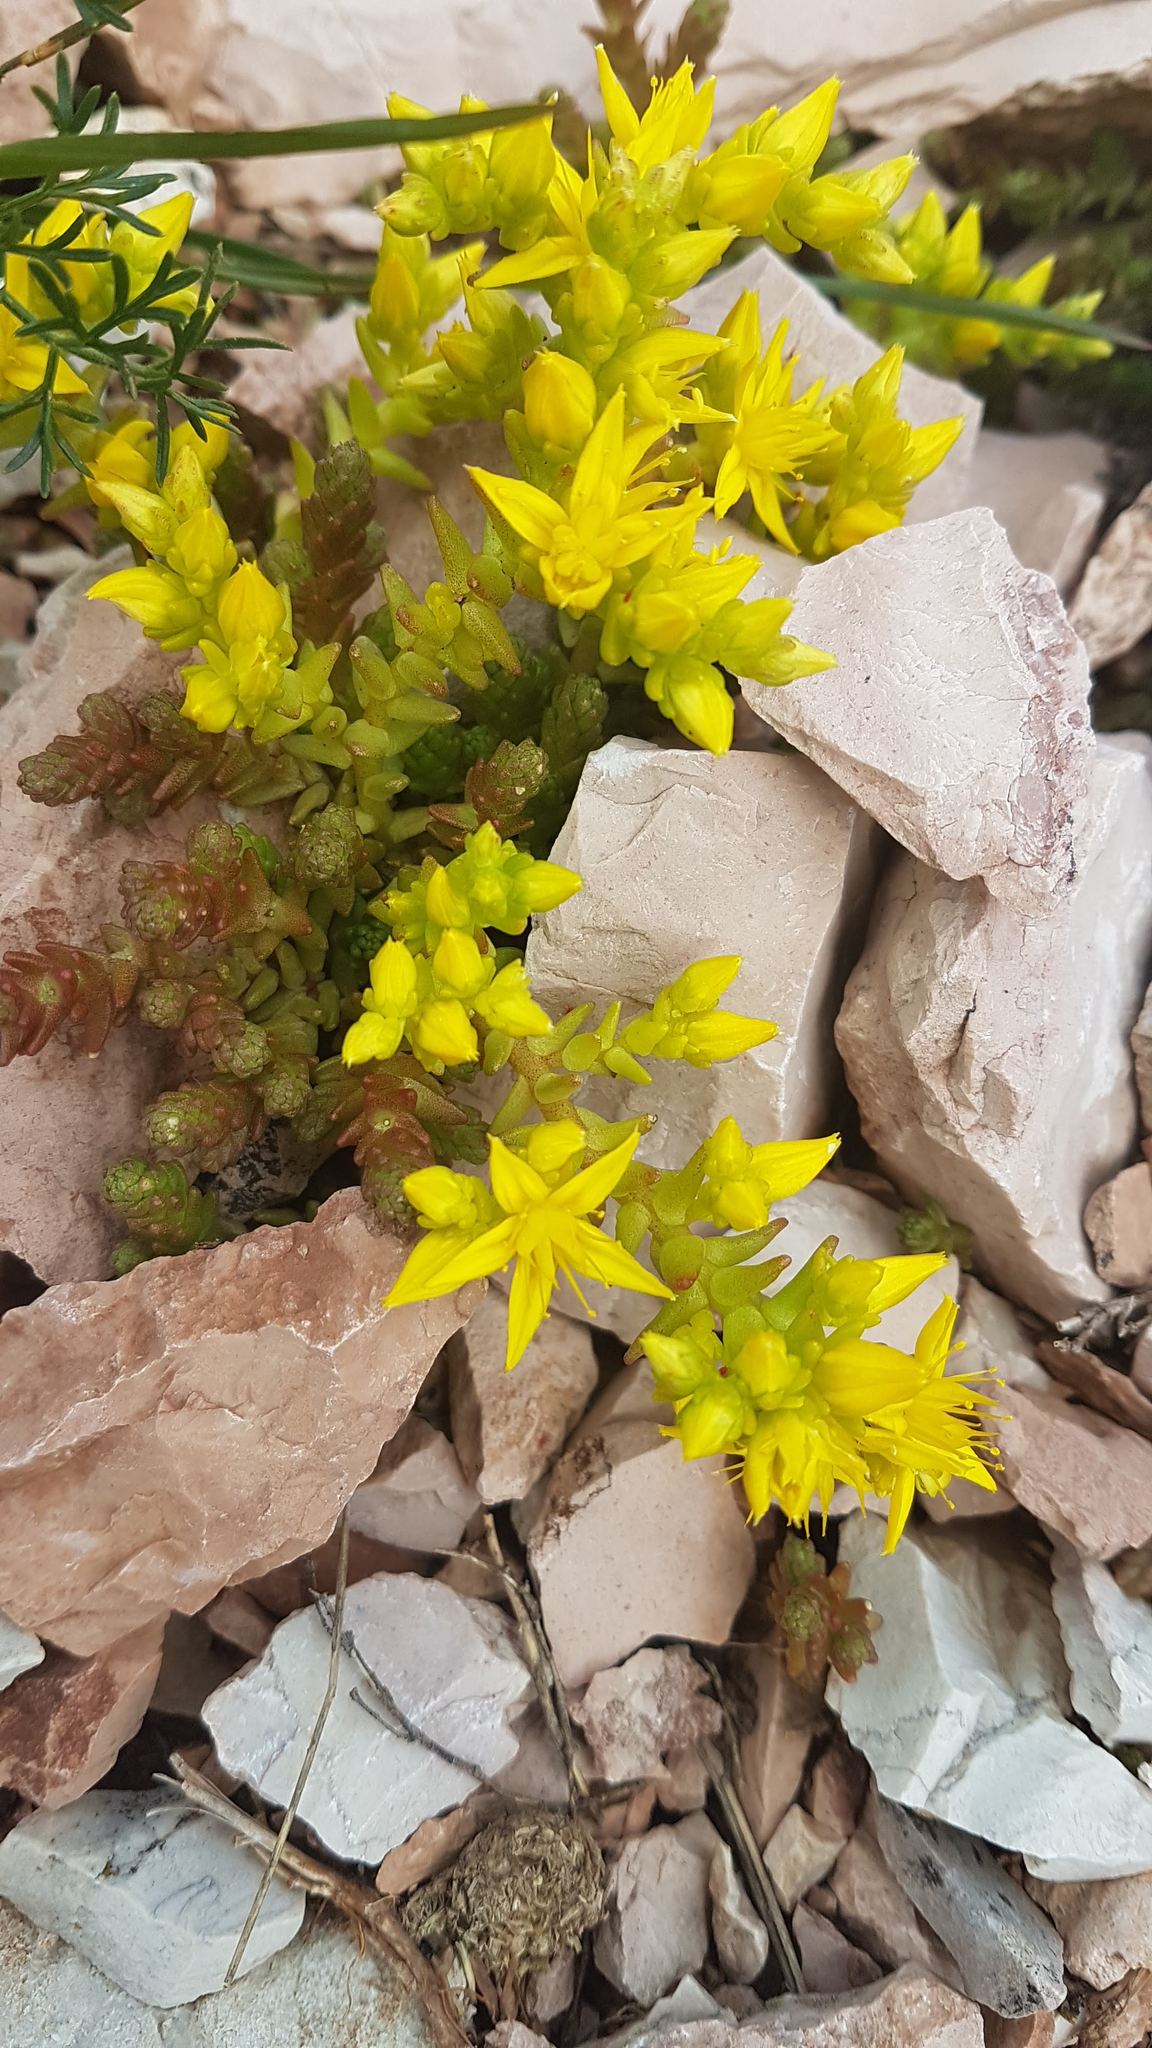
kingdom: Plantae
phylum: Tracheophyta
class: Magnoliopsida
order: Saxifragales
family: Crassulaceae
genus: Sedum
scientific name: Sedum acre
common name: Biting stonecrop
